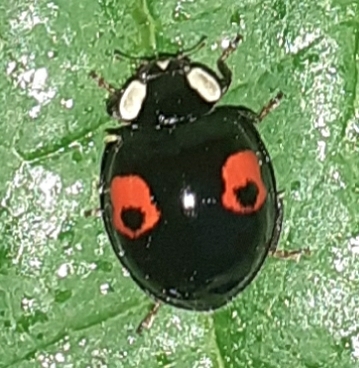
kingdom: Animalia
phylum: Arthropoda
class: Insecta
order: Coleoptera
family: Coccinellidae
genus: Harmonia
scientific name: Harmonia axyridis
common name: Harlequin ladybird
